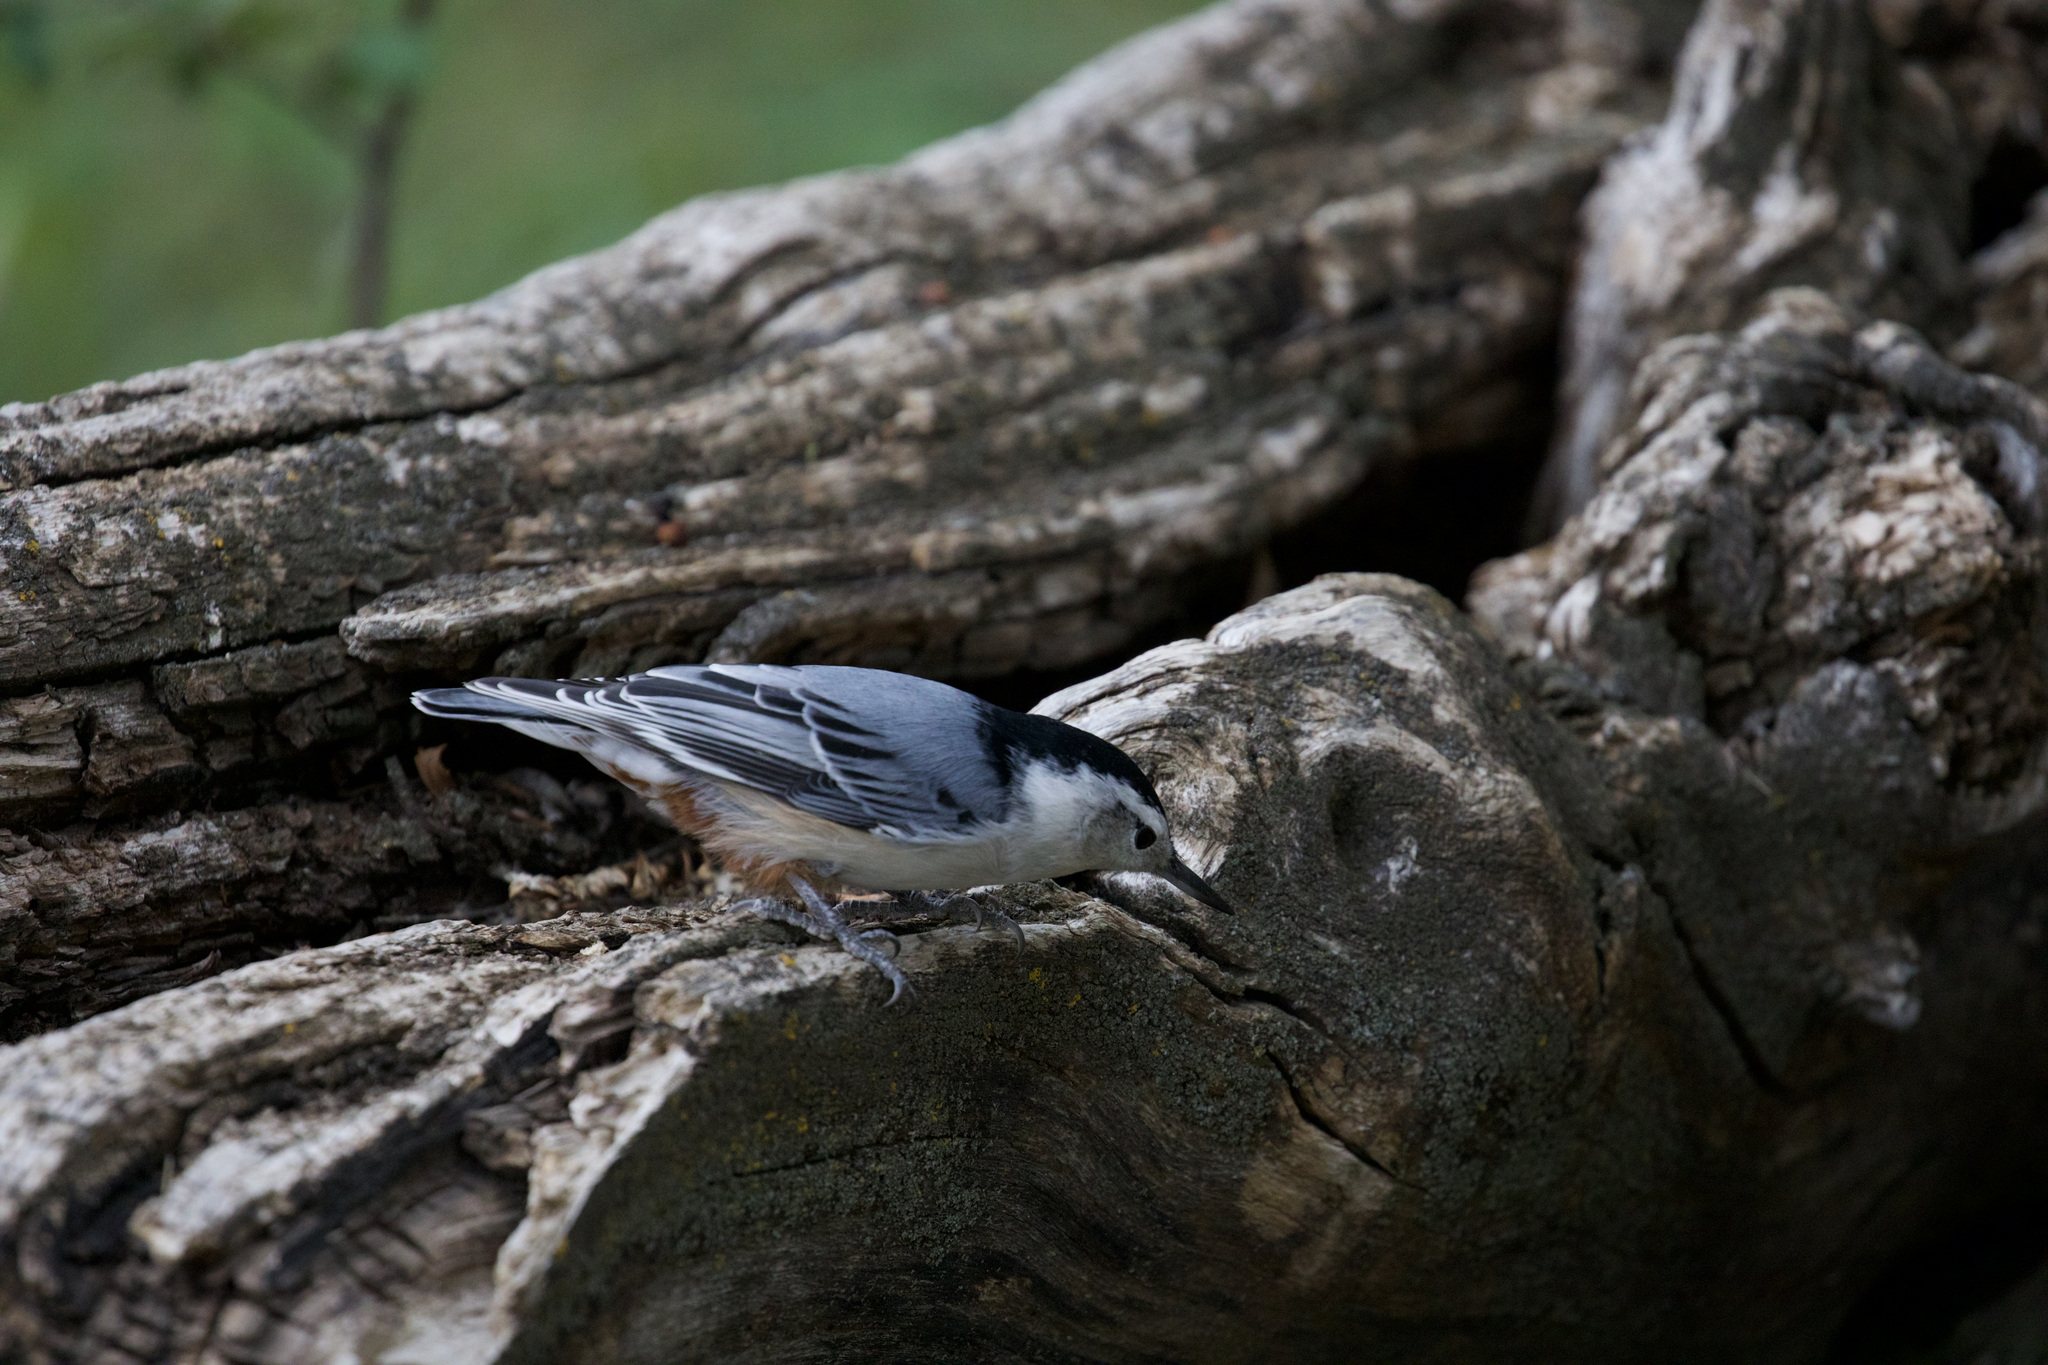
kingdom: Animalia
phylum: Chordata
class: Aves
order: Passeriformes
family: Sittidae
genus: Sitta
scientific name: Sitta carolinensis
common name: White-breasted nuthatch
